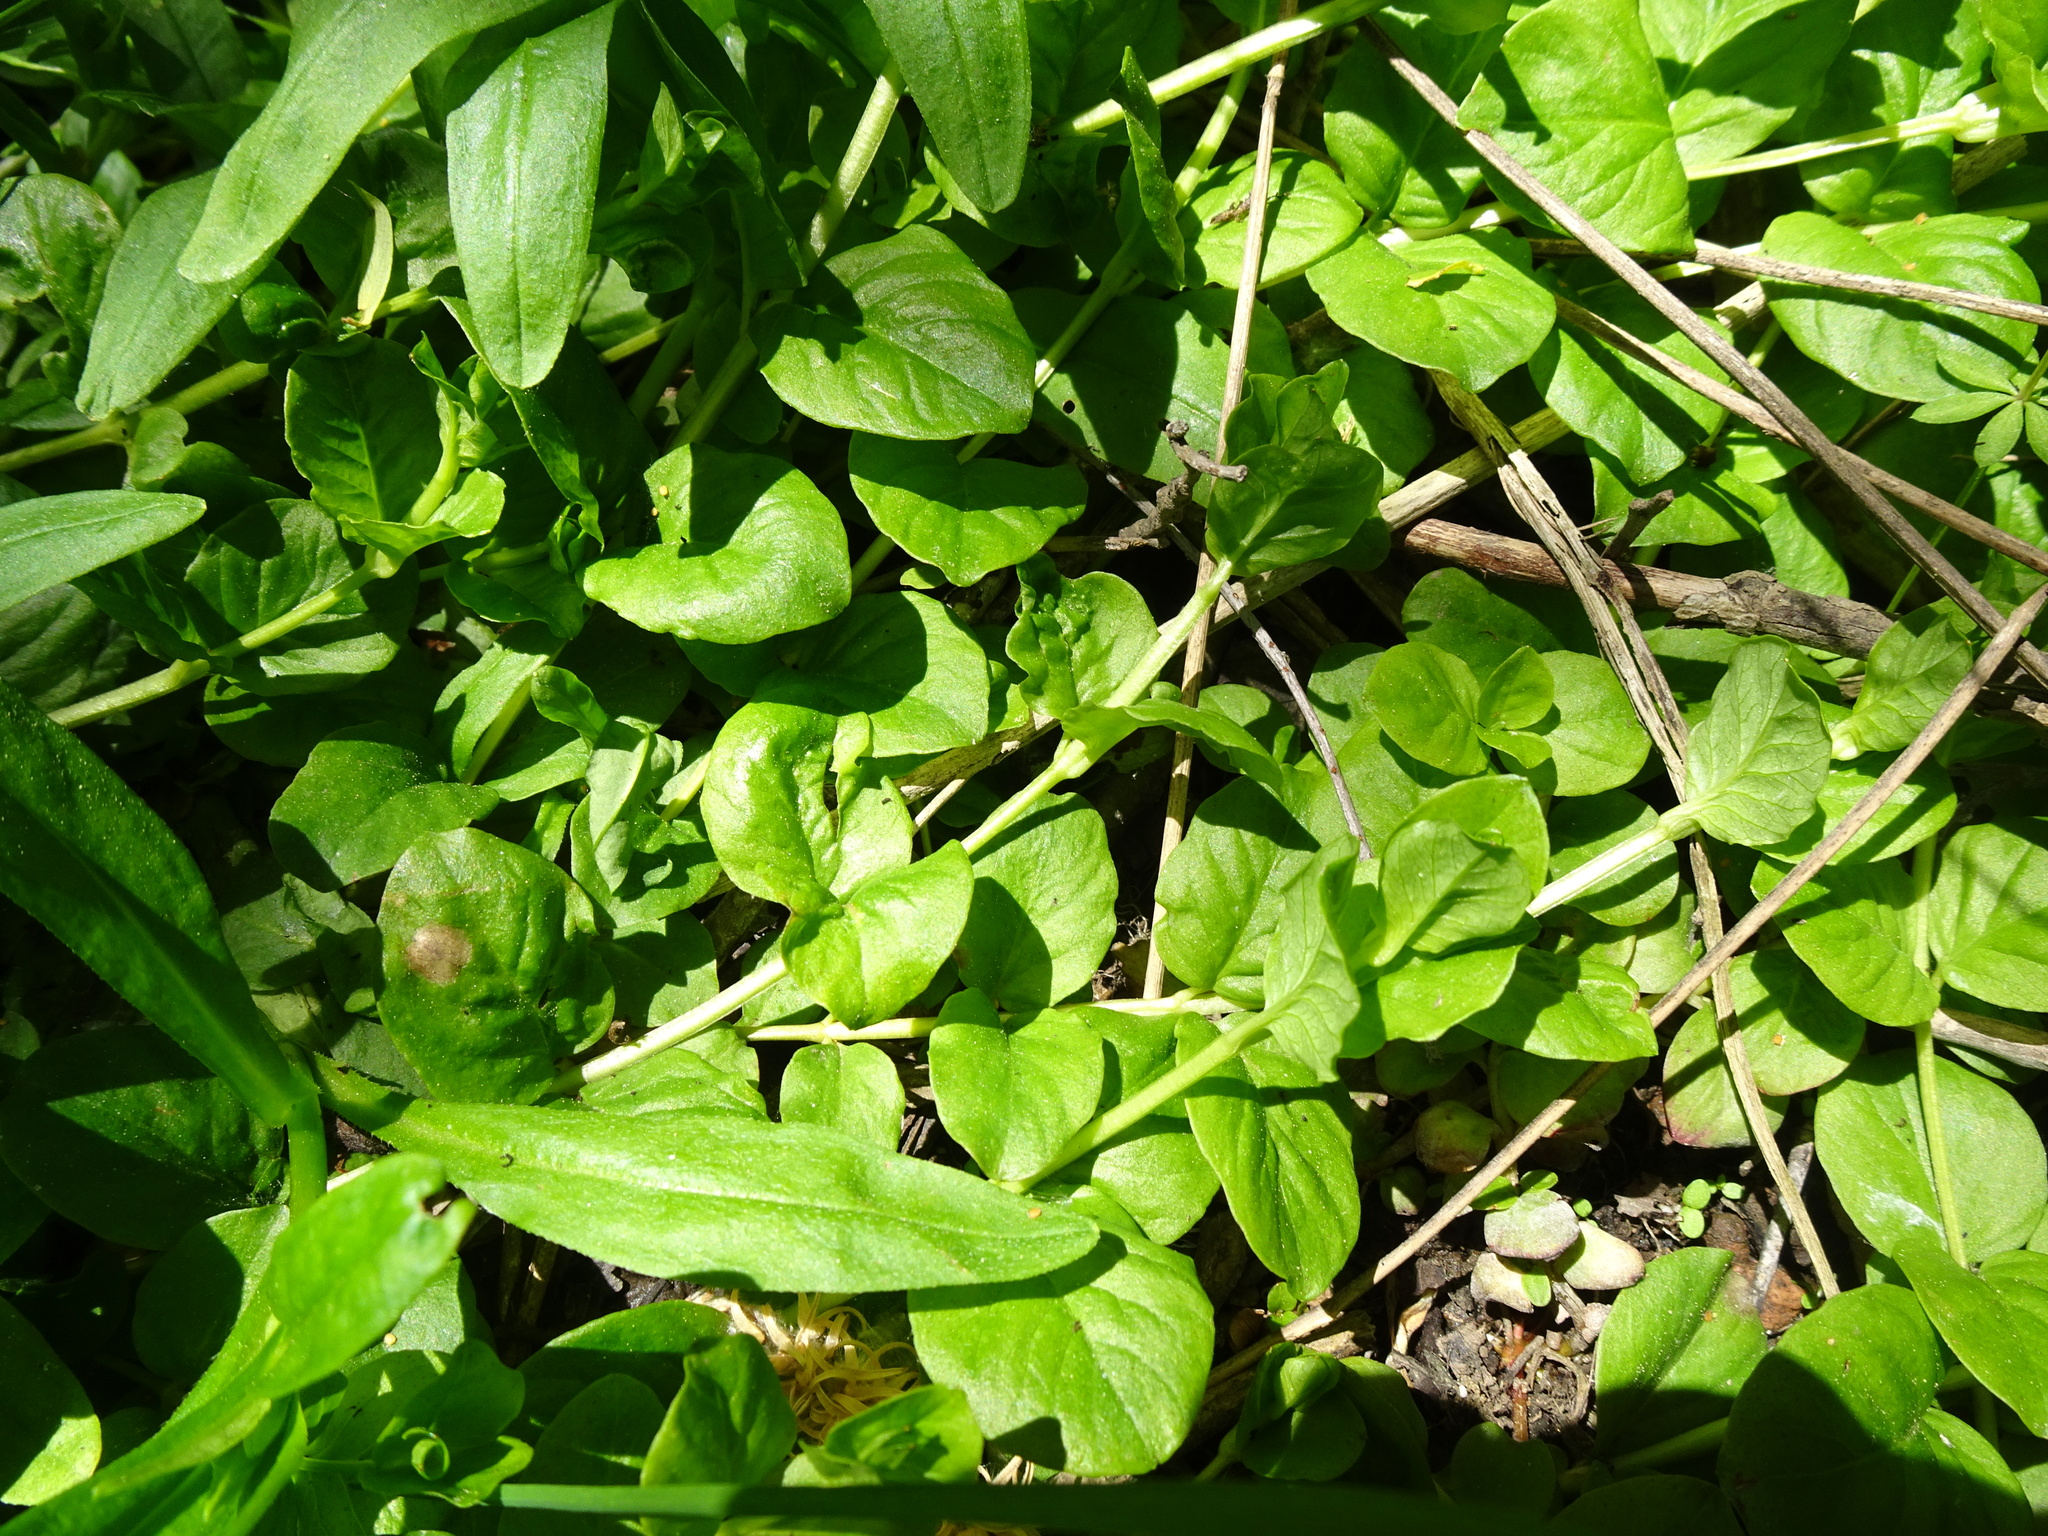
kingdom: Plantae
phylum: Tracheophyta
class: Magnoliopsida
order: Ericales
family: Primulaceae
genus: Lysimachia
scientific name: Lysimachia nummularia
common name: Moneywort
